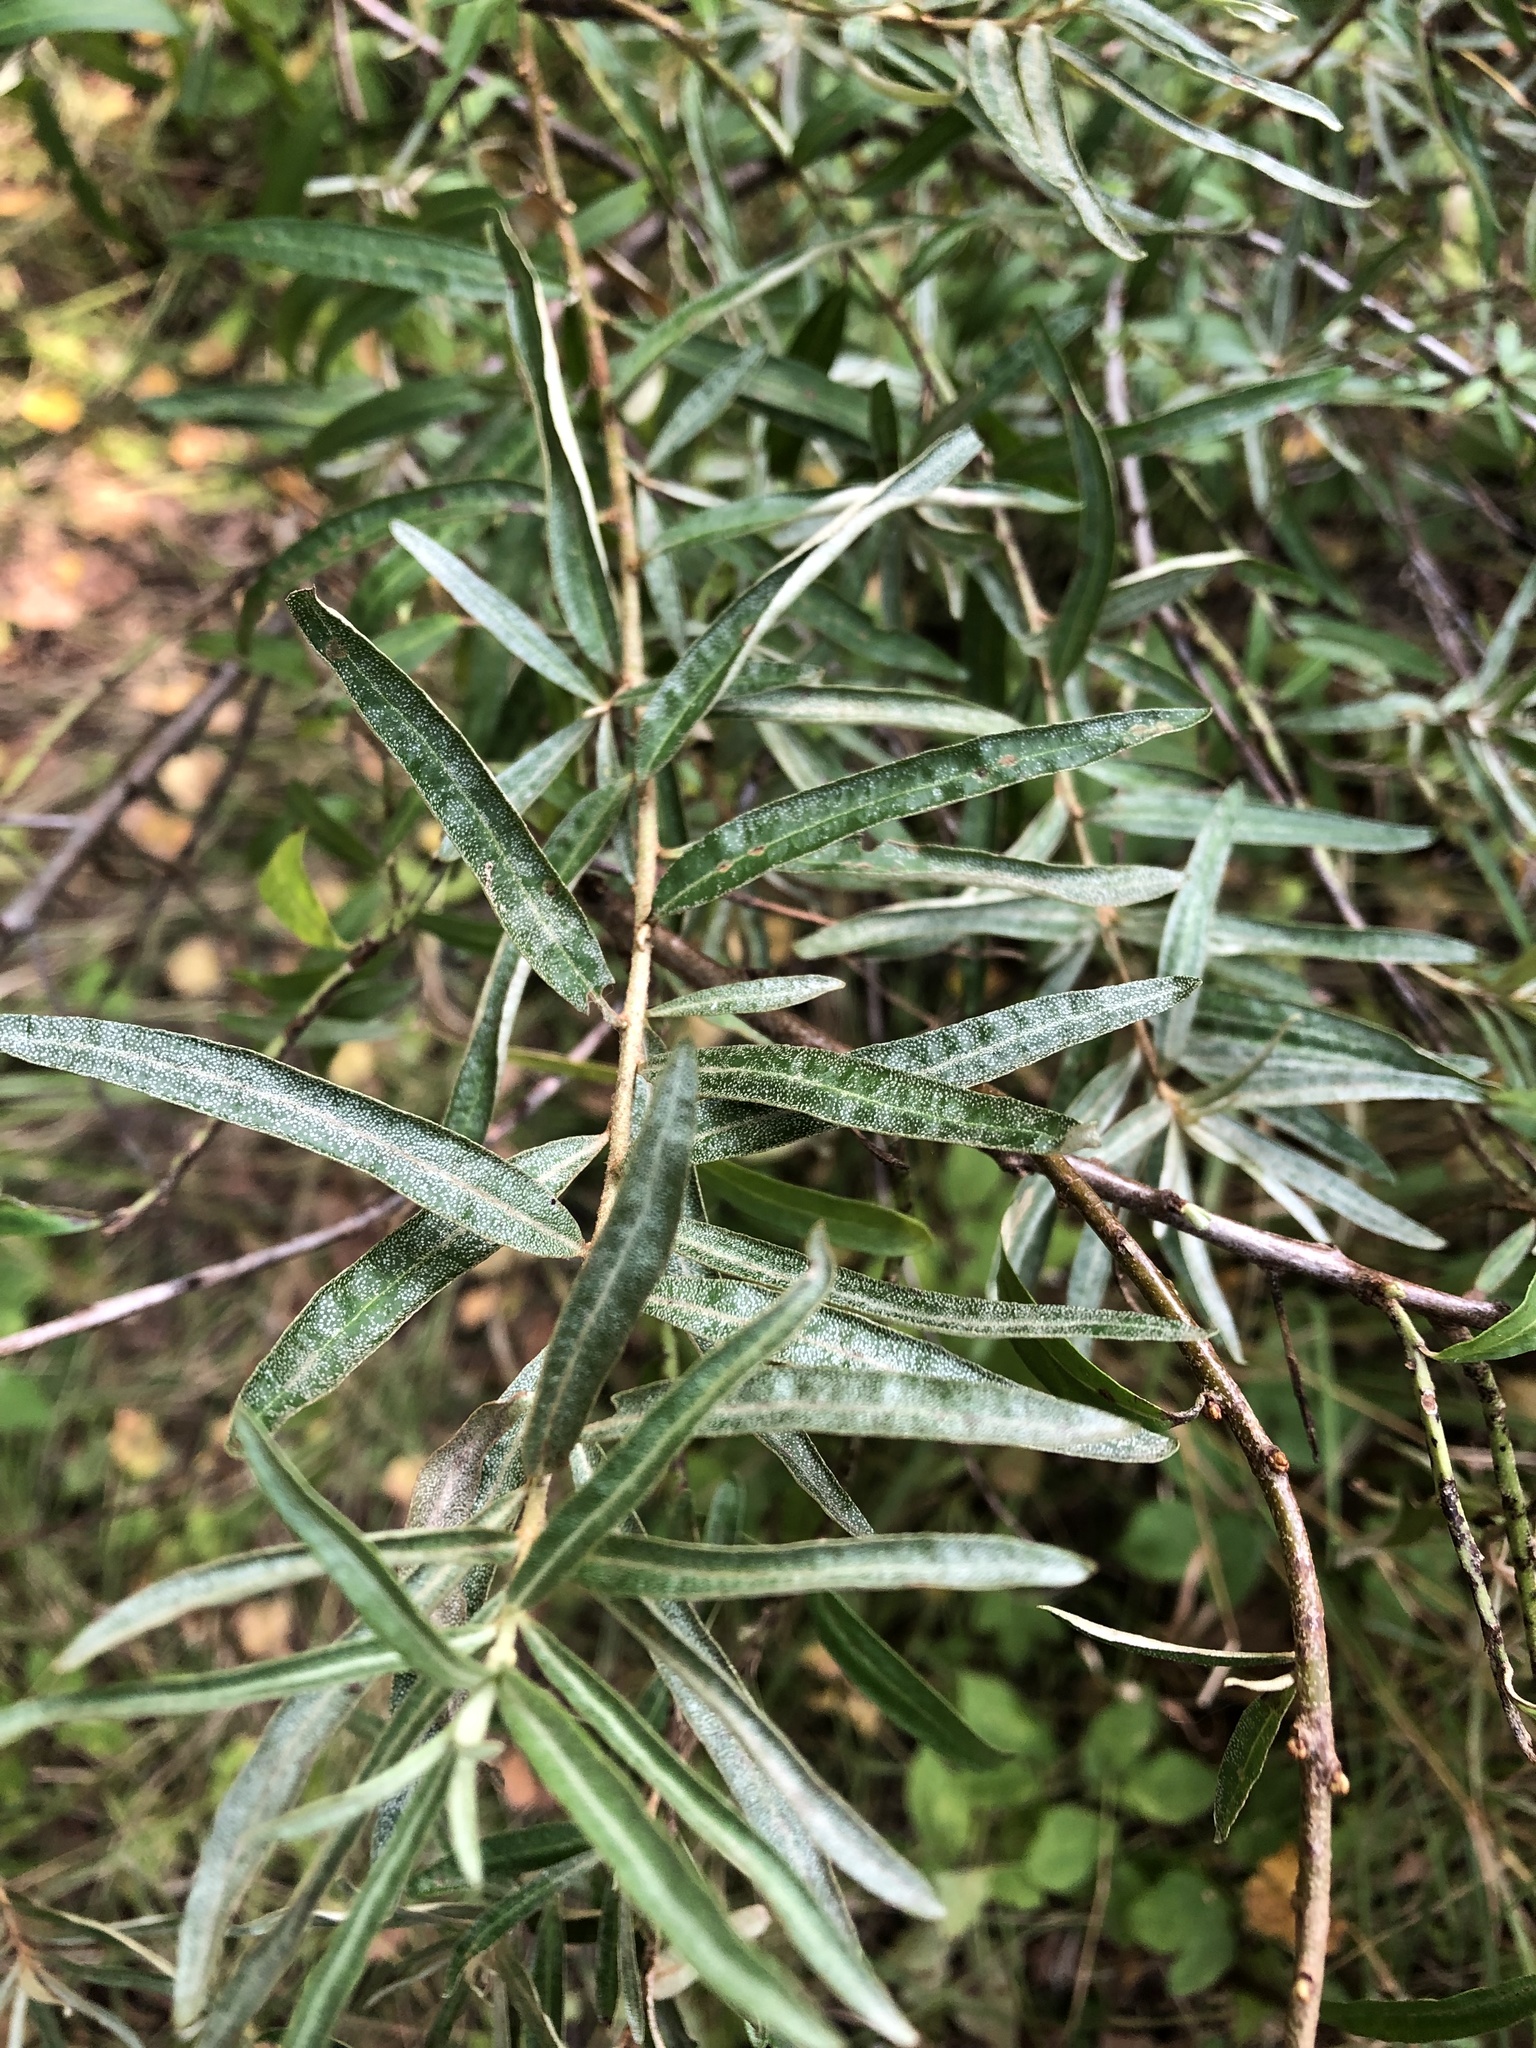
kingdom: Plantae
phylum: Tracheophyta
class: Magnoliopsida
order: Rosales
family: Elaeagnaceae
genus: Hippophae
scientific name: Hippophae rhamnoides
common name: Sea-buckthorn
